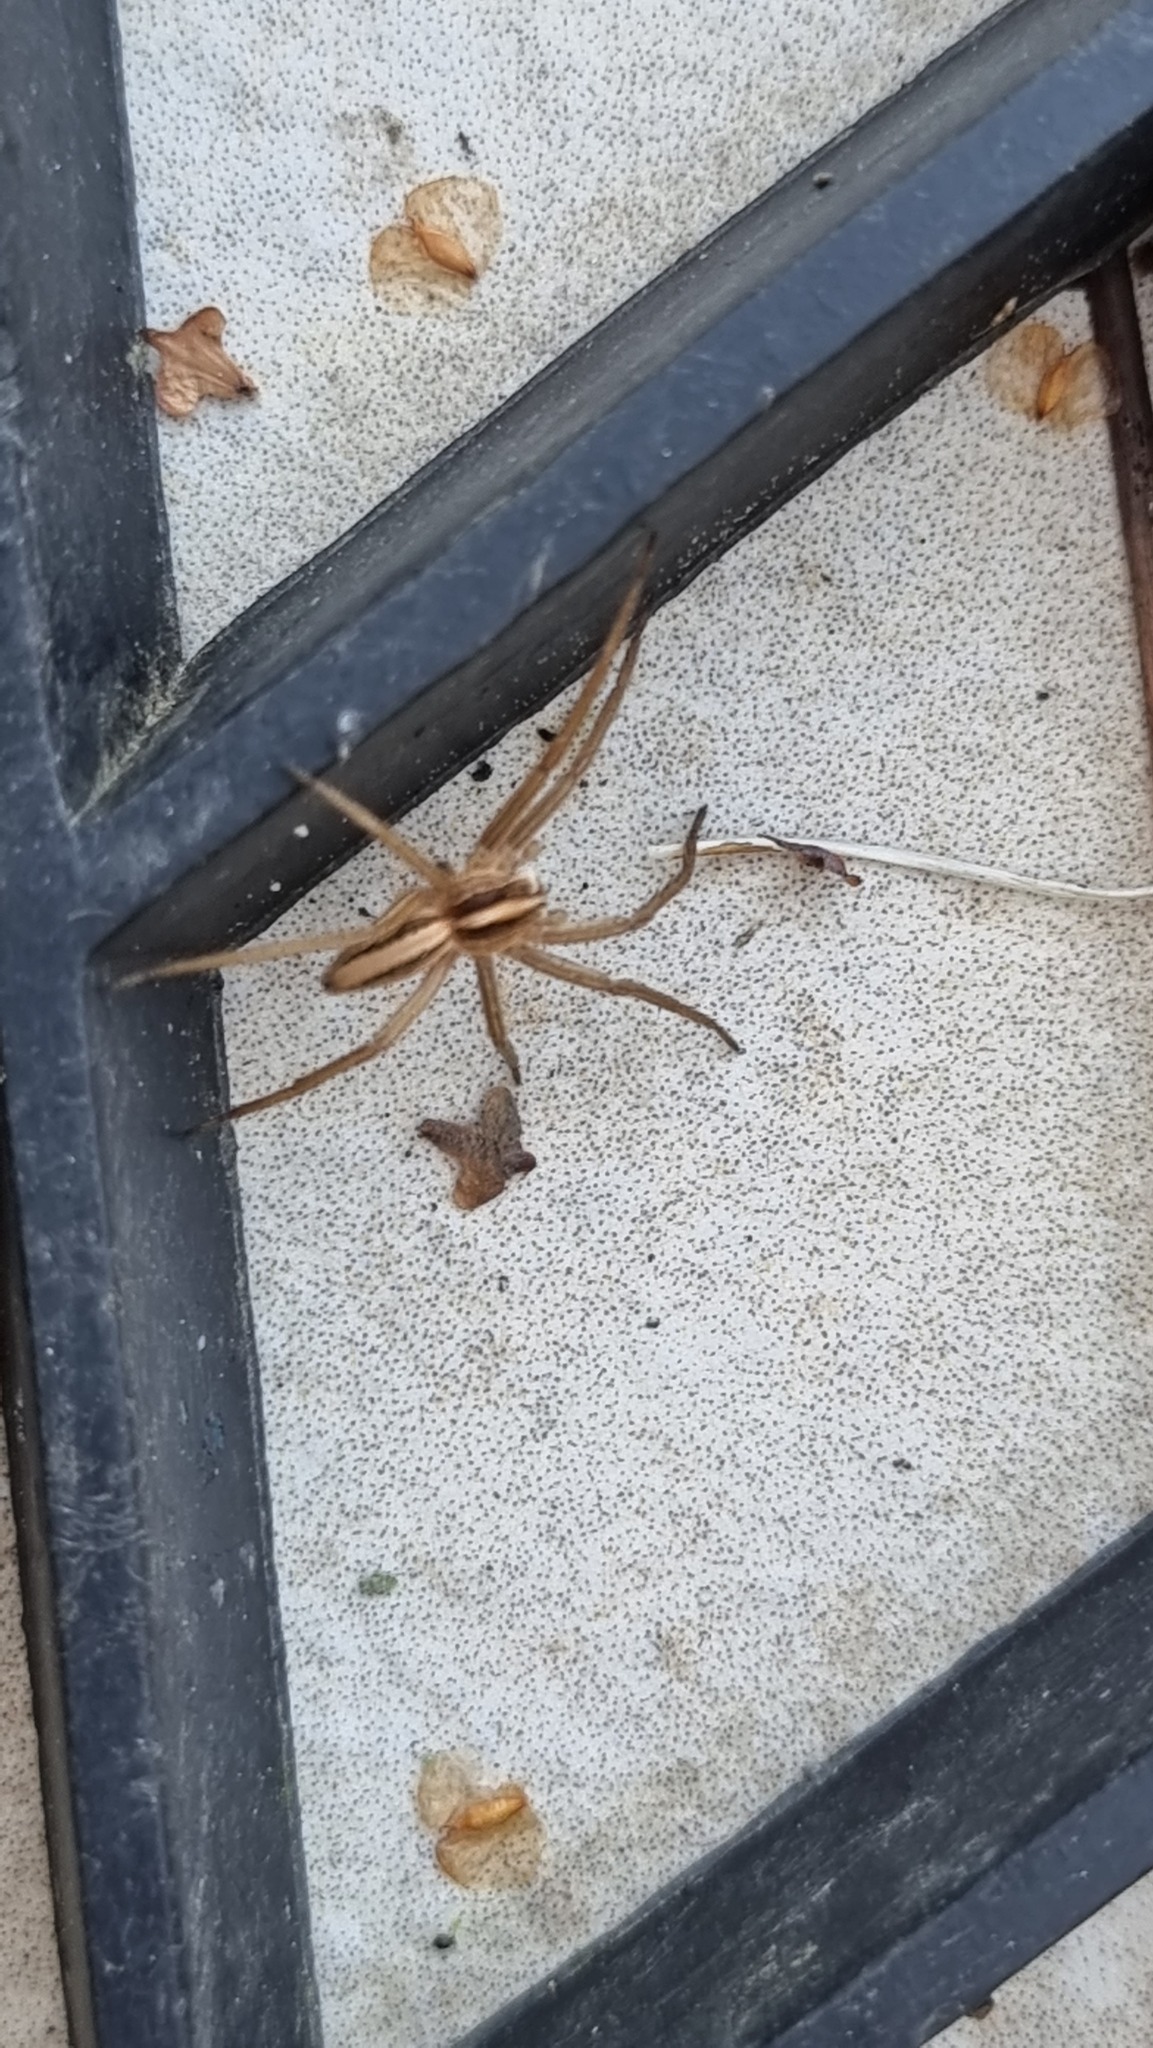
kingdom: Animalia
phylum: Arthropoda
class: Arachnida
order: Araneae
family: Pisauridae
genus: Pisaura
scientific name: Pisaura mirabilis
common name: Tent spider
